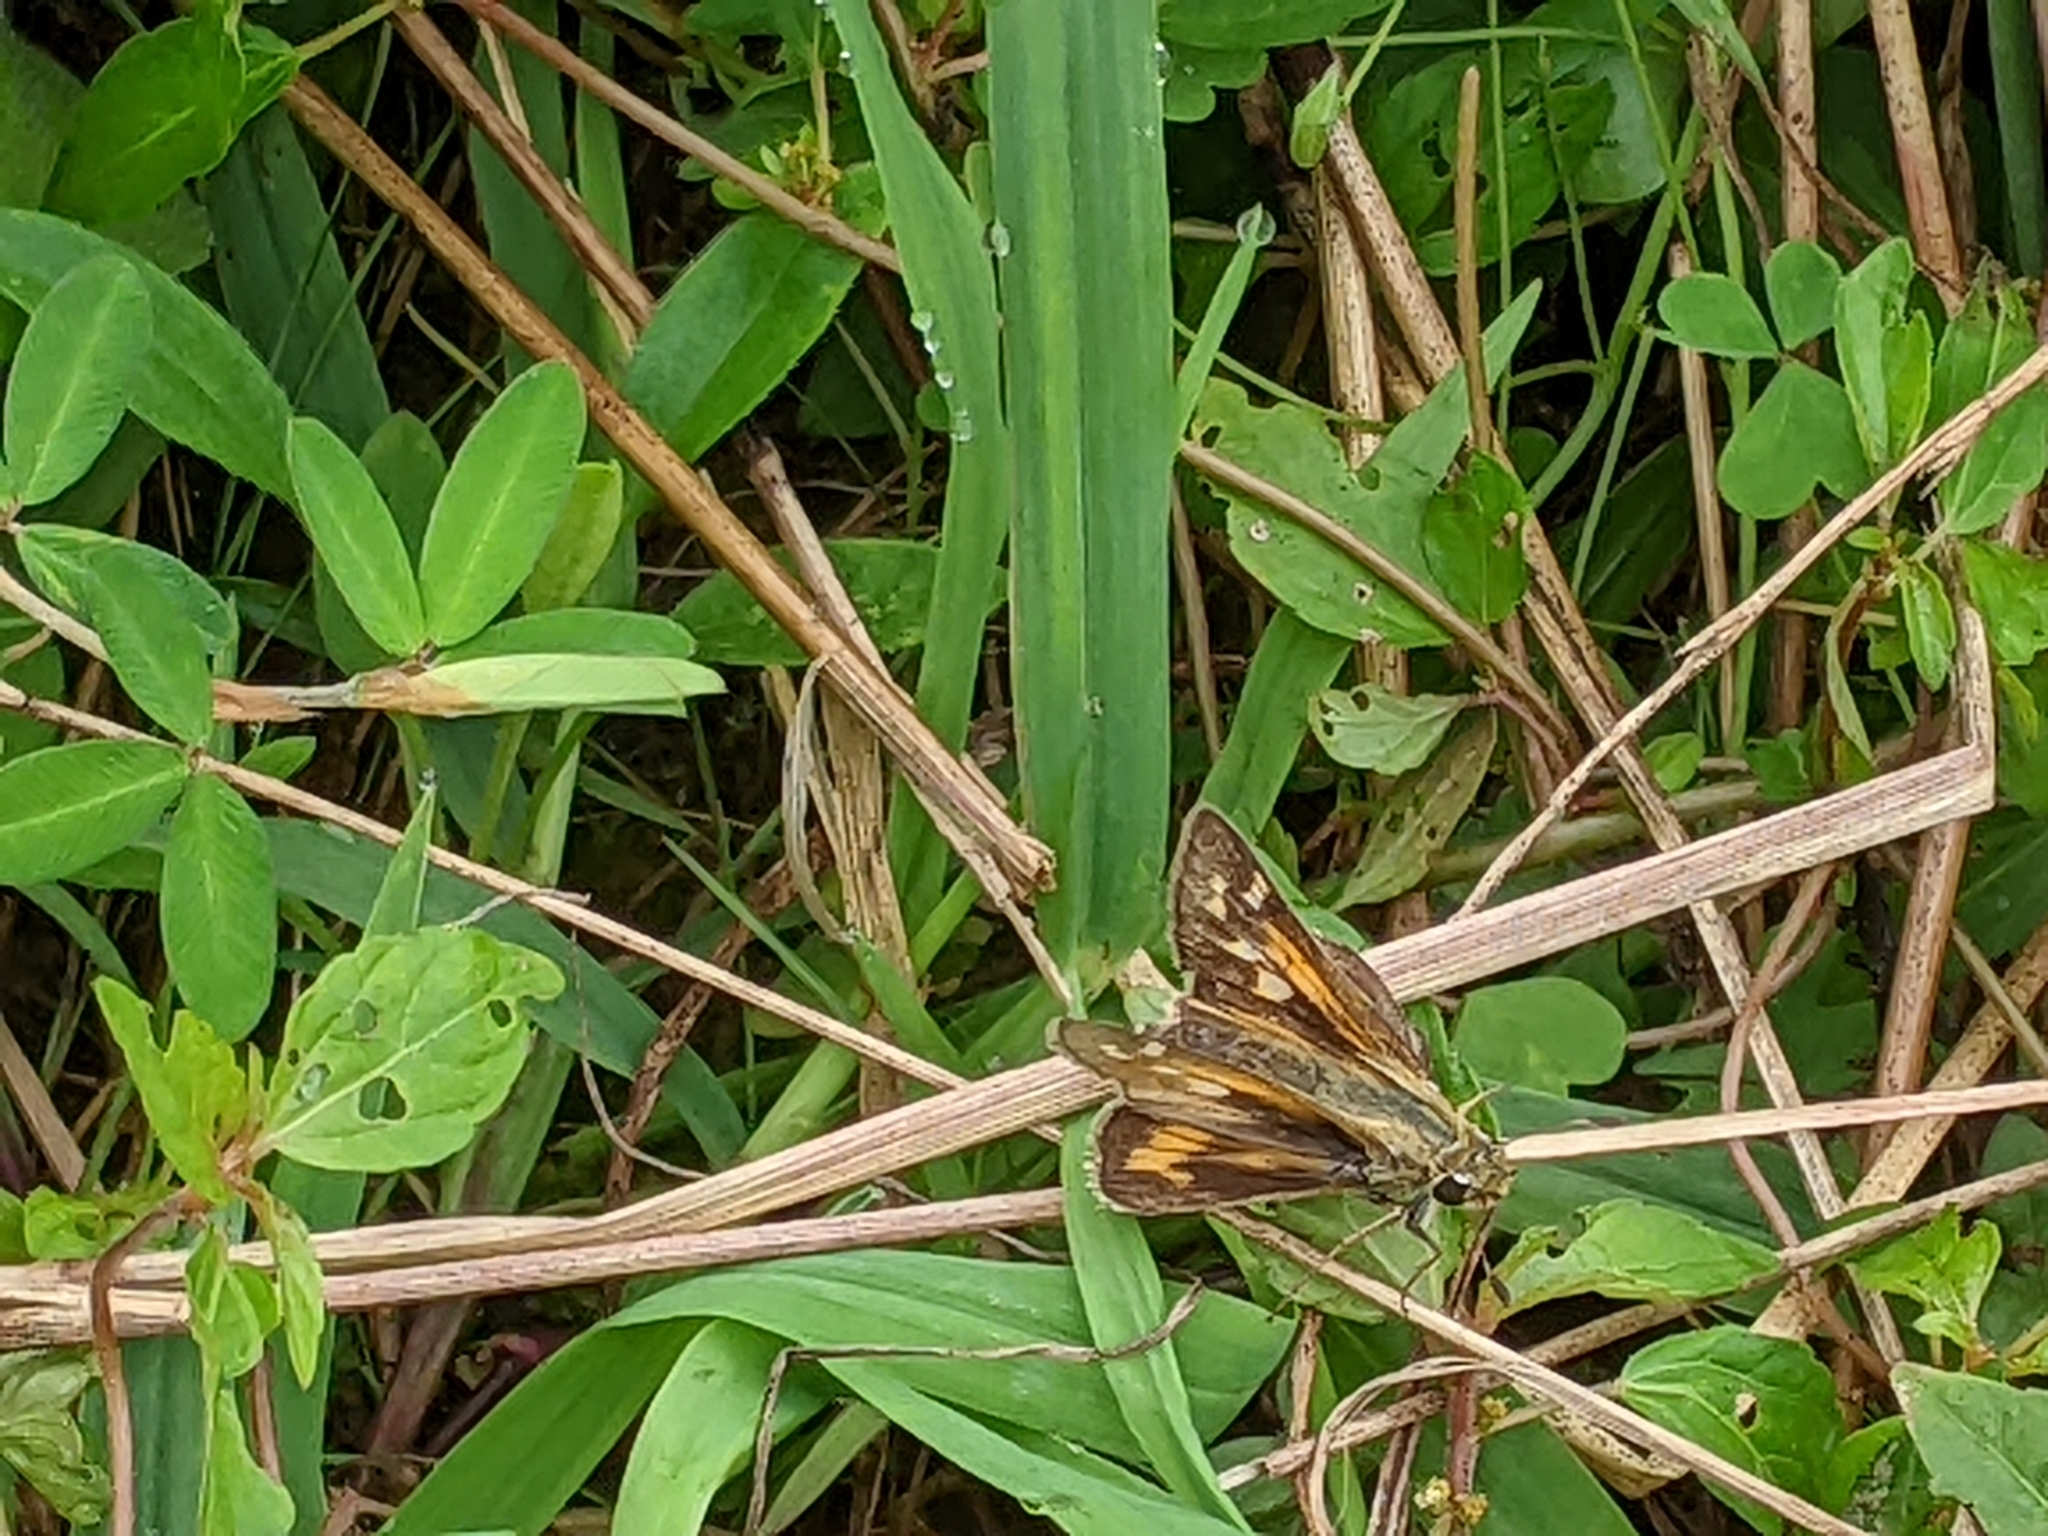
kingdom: Animalia
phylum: Arthropoda
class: Insecta
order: Lepidoptera
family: Hesperiidae
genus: Atalopedes
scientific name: Atalopedes
